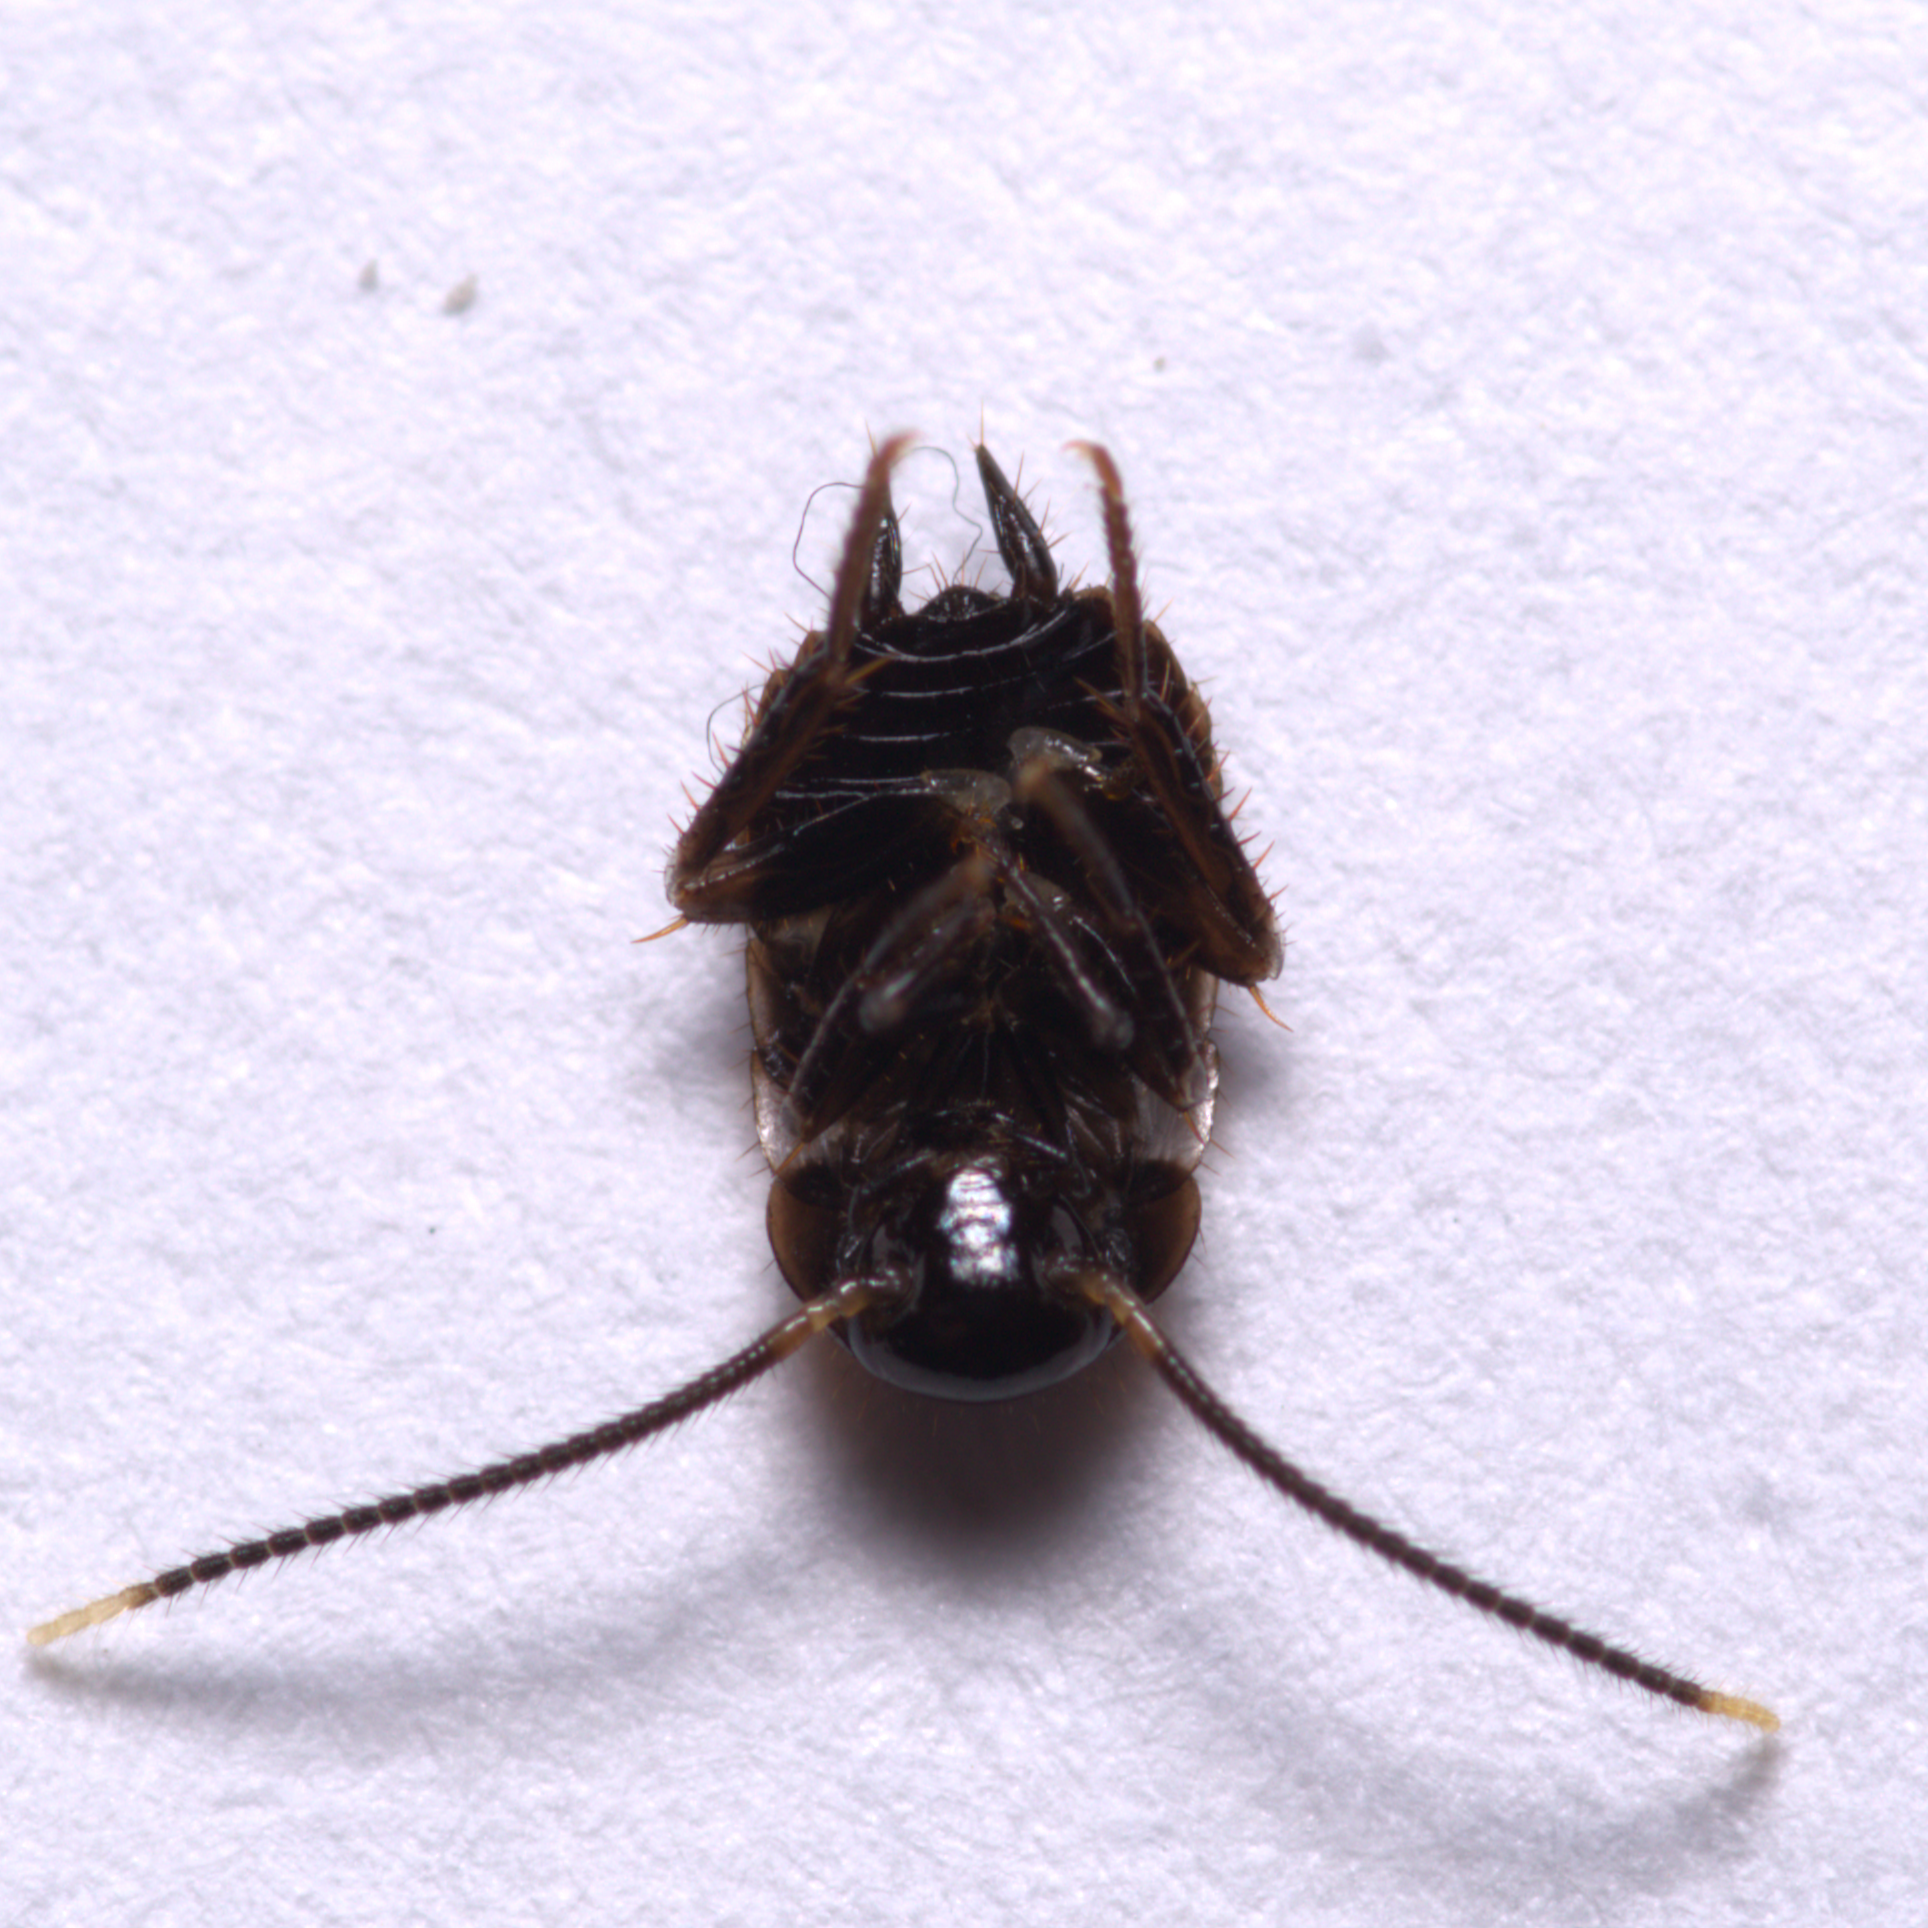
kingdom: Animalia
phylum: Arthropoda
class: Insecta
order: Blattodea
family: Blattidae
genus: Periplaneta
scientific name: Periplaneta fuliginosa
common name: Smokeybrown cockroad
